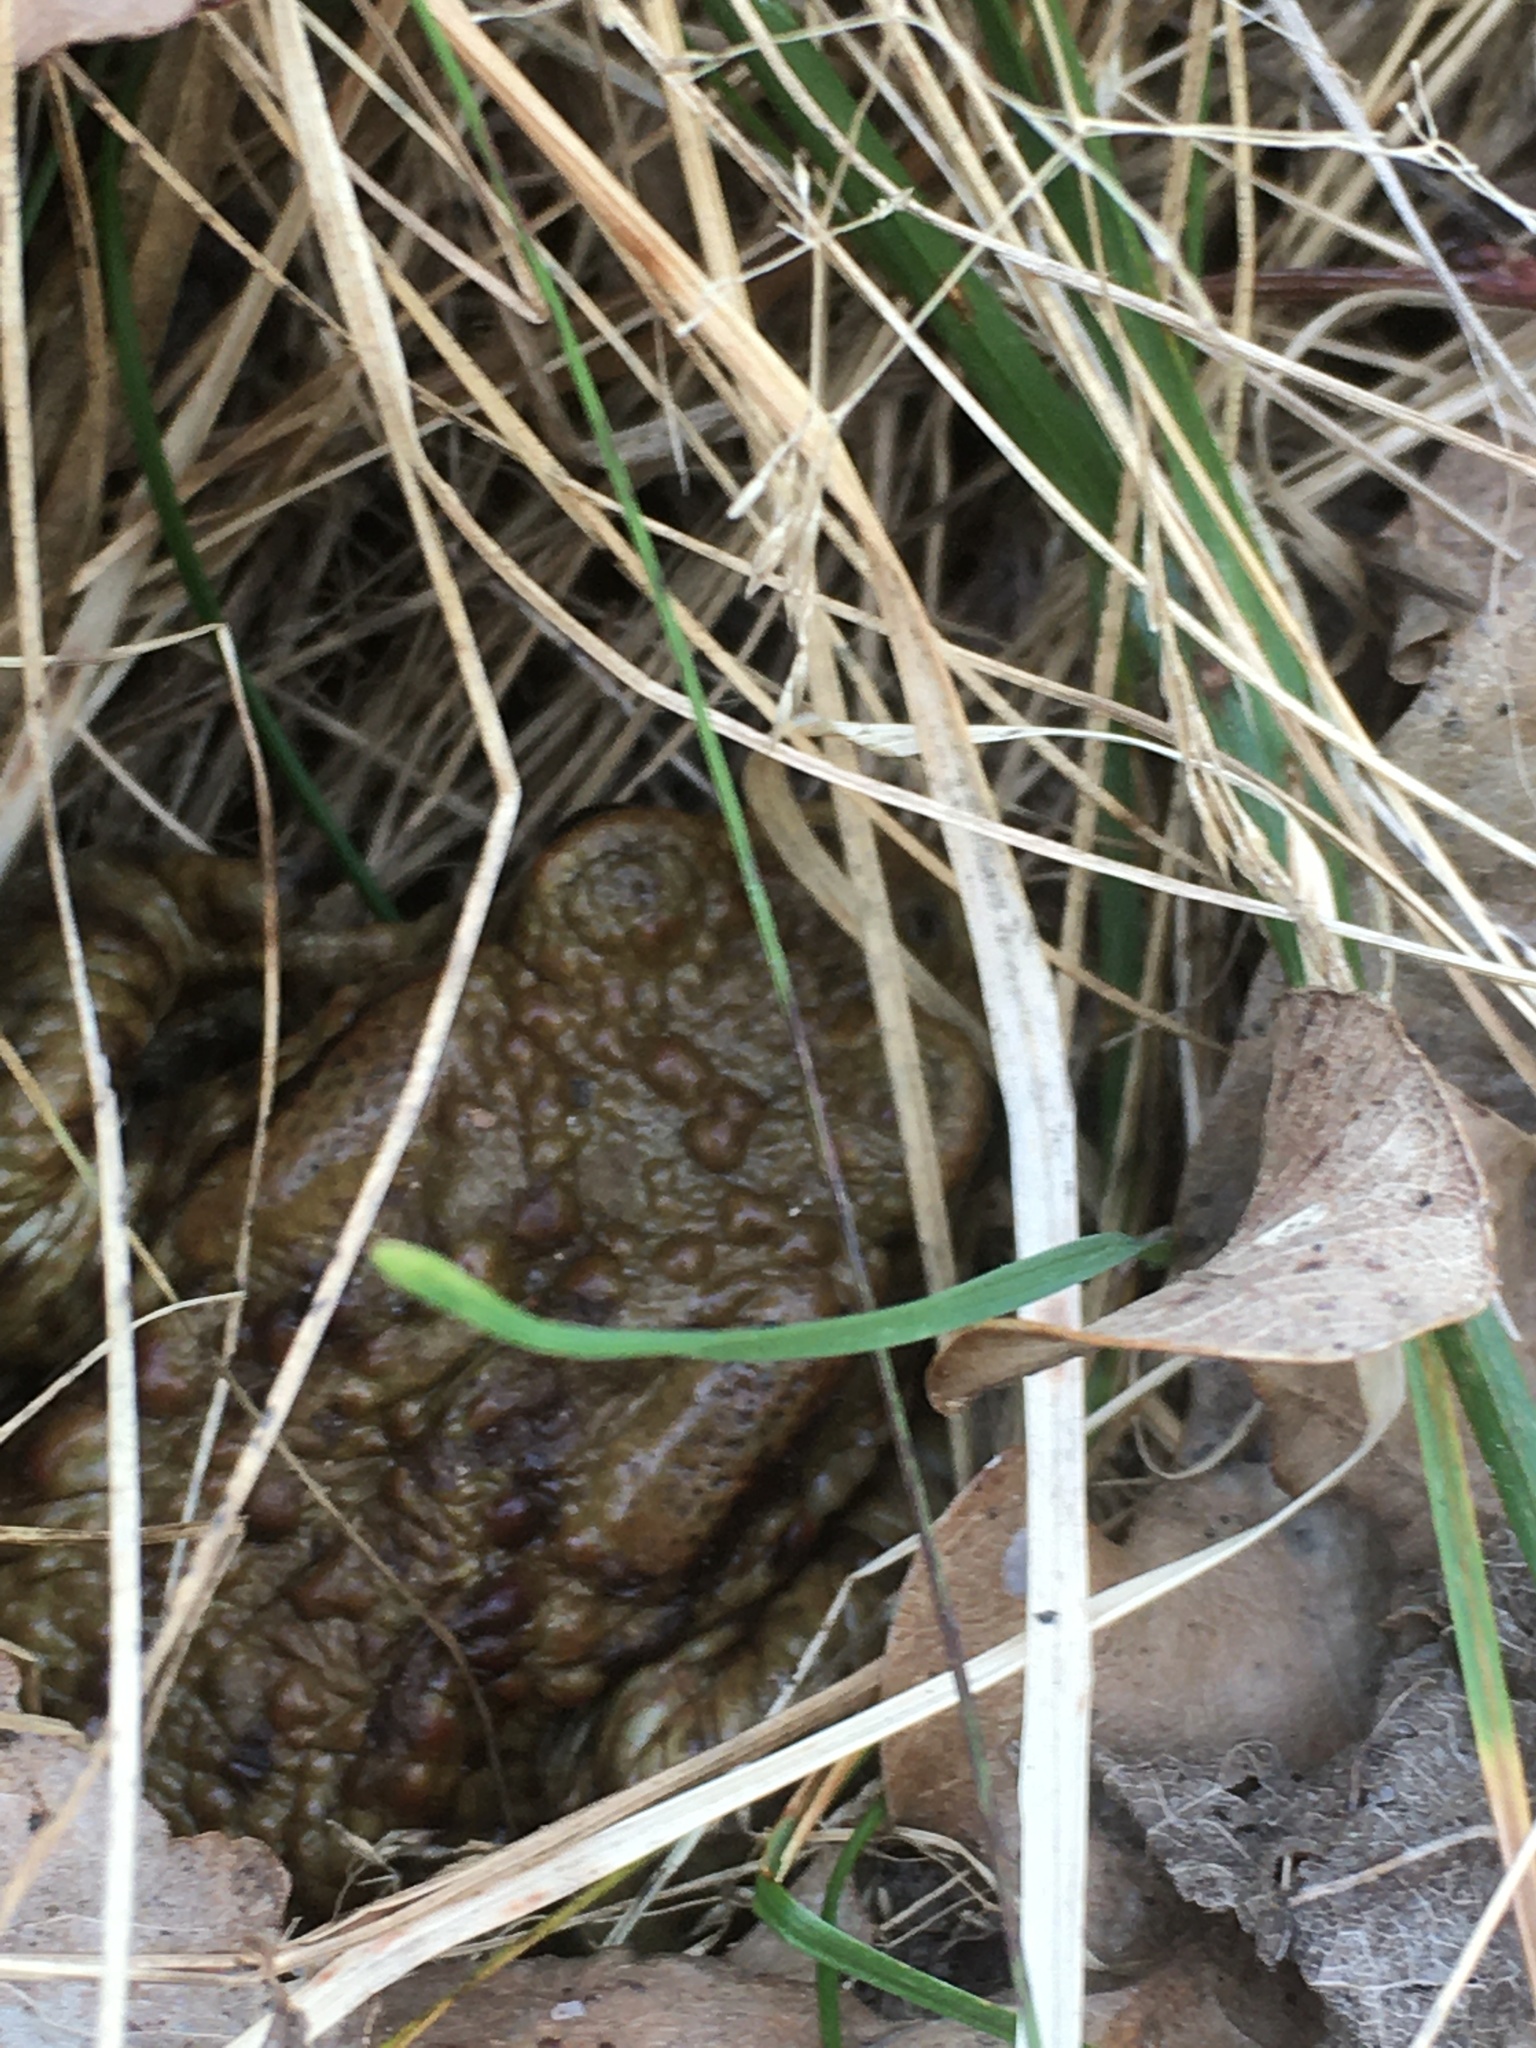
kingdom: Animalia
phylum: Chordata
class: Amphibia
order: Anura
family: Bufonidae
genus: Bufo
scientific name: Bufo bufo
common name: Common toad
